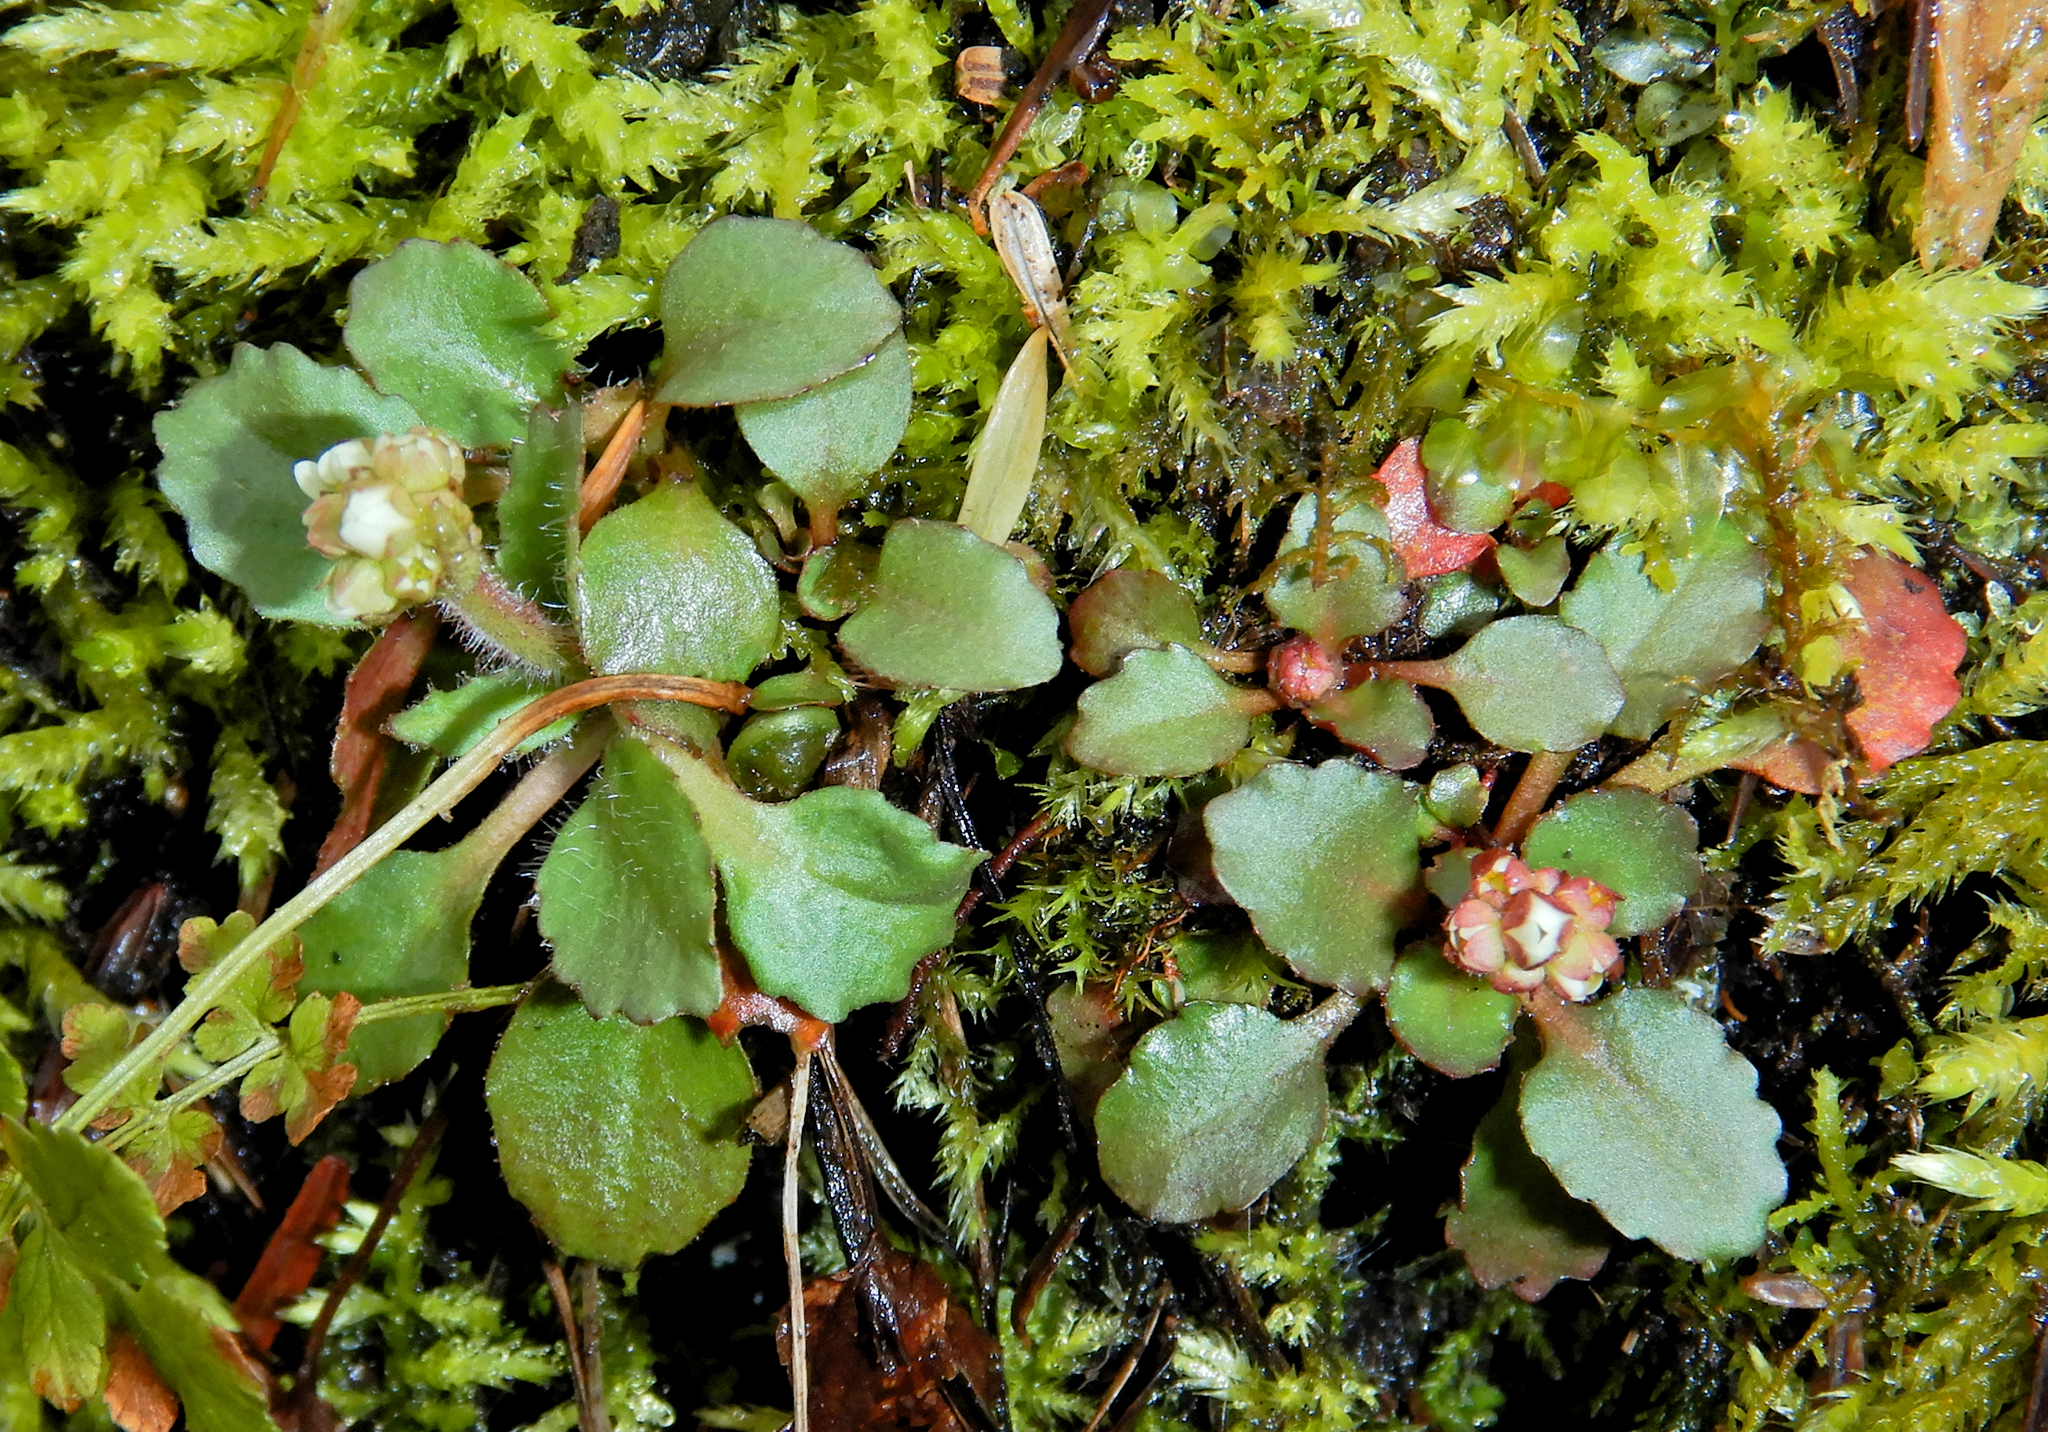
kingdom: Plantae
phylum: Tracheophyta
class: Magnoliopsida
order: Saxifragales
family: Saxifragaceae
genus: Micranthes
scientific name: Micranthes virginiensis
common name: Early saxifrage
